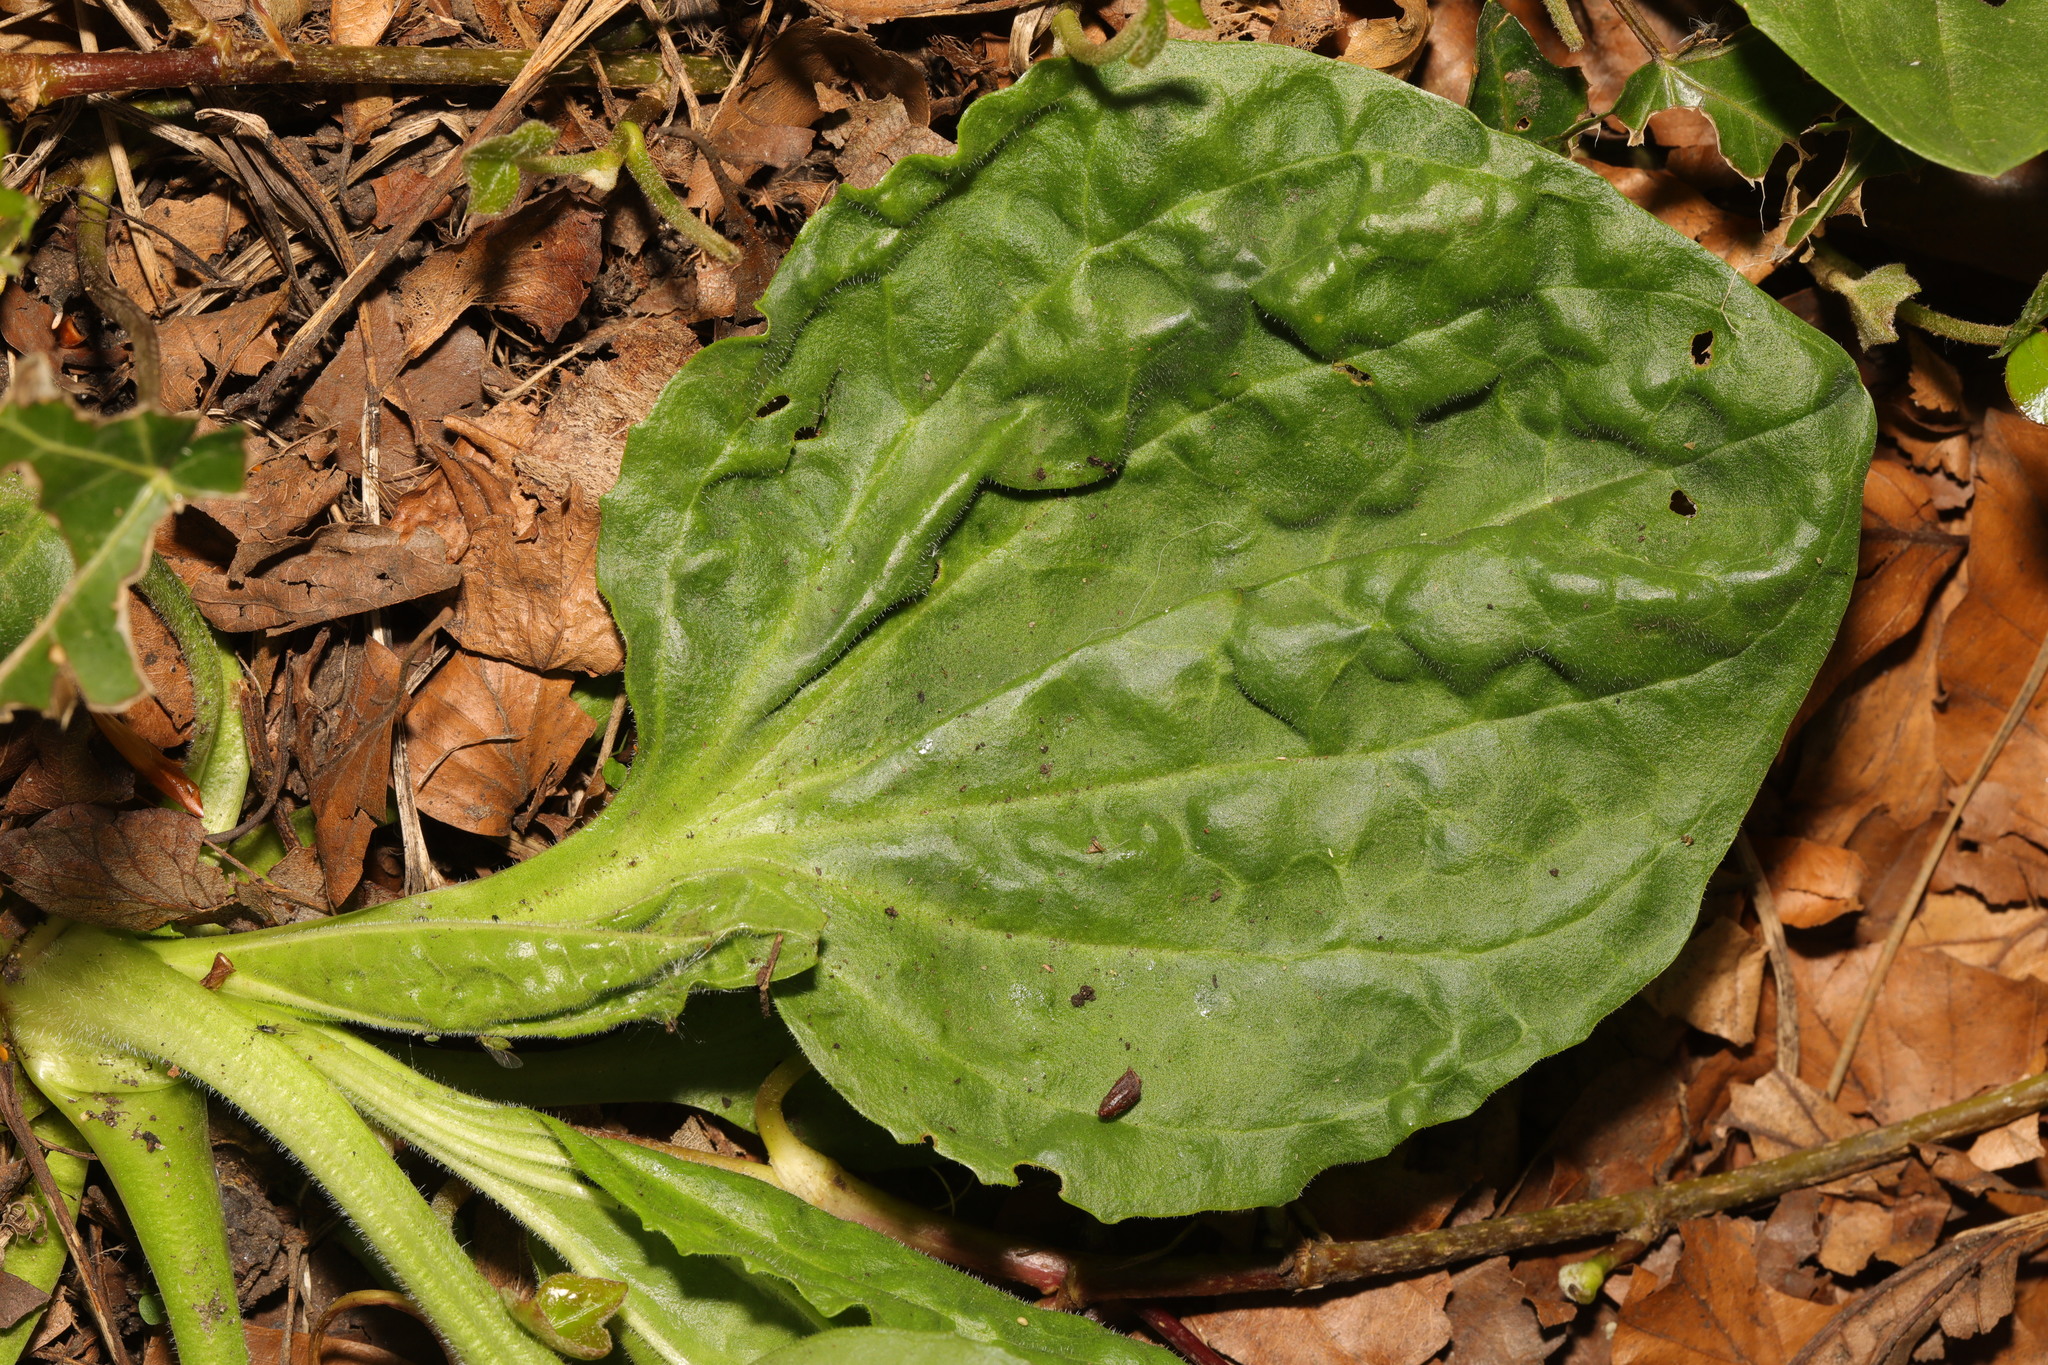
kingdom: Plantae
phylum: Tracheophyta
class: Magnoliopsida
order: Lamiales
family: Plantaginaceae
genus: Plantago
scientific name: Plantago major
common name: Common plantain
